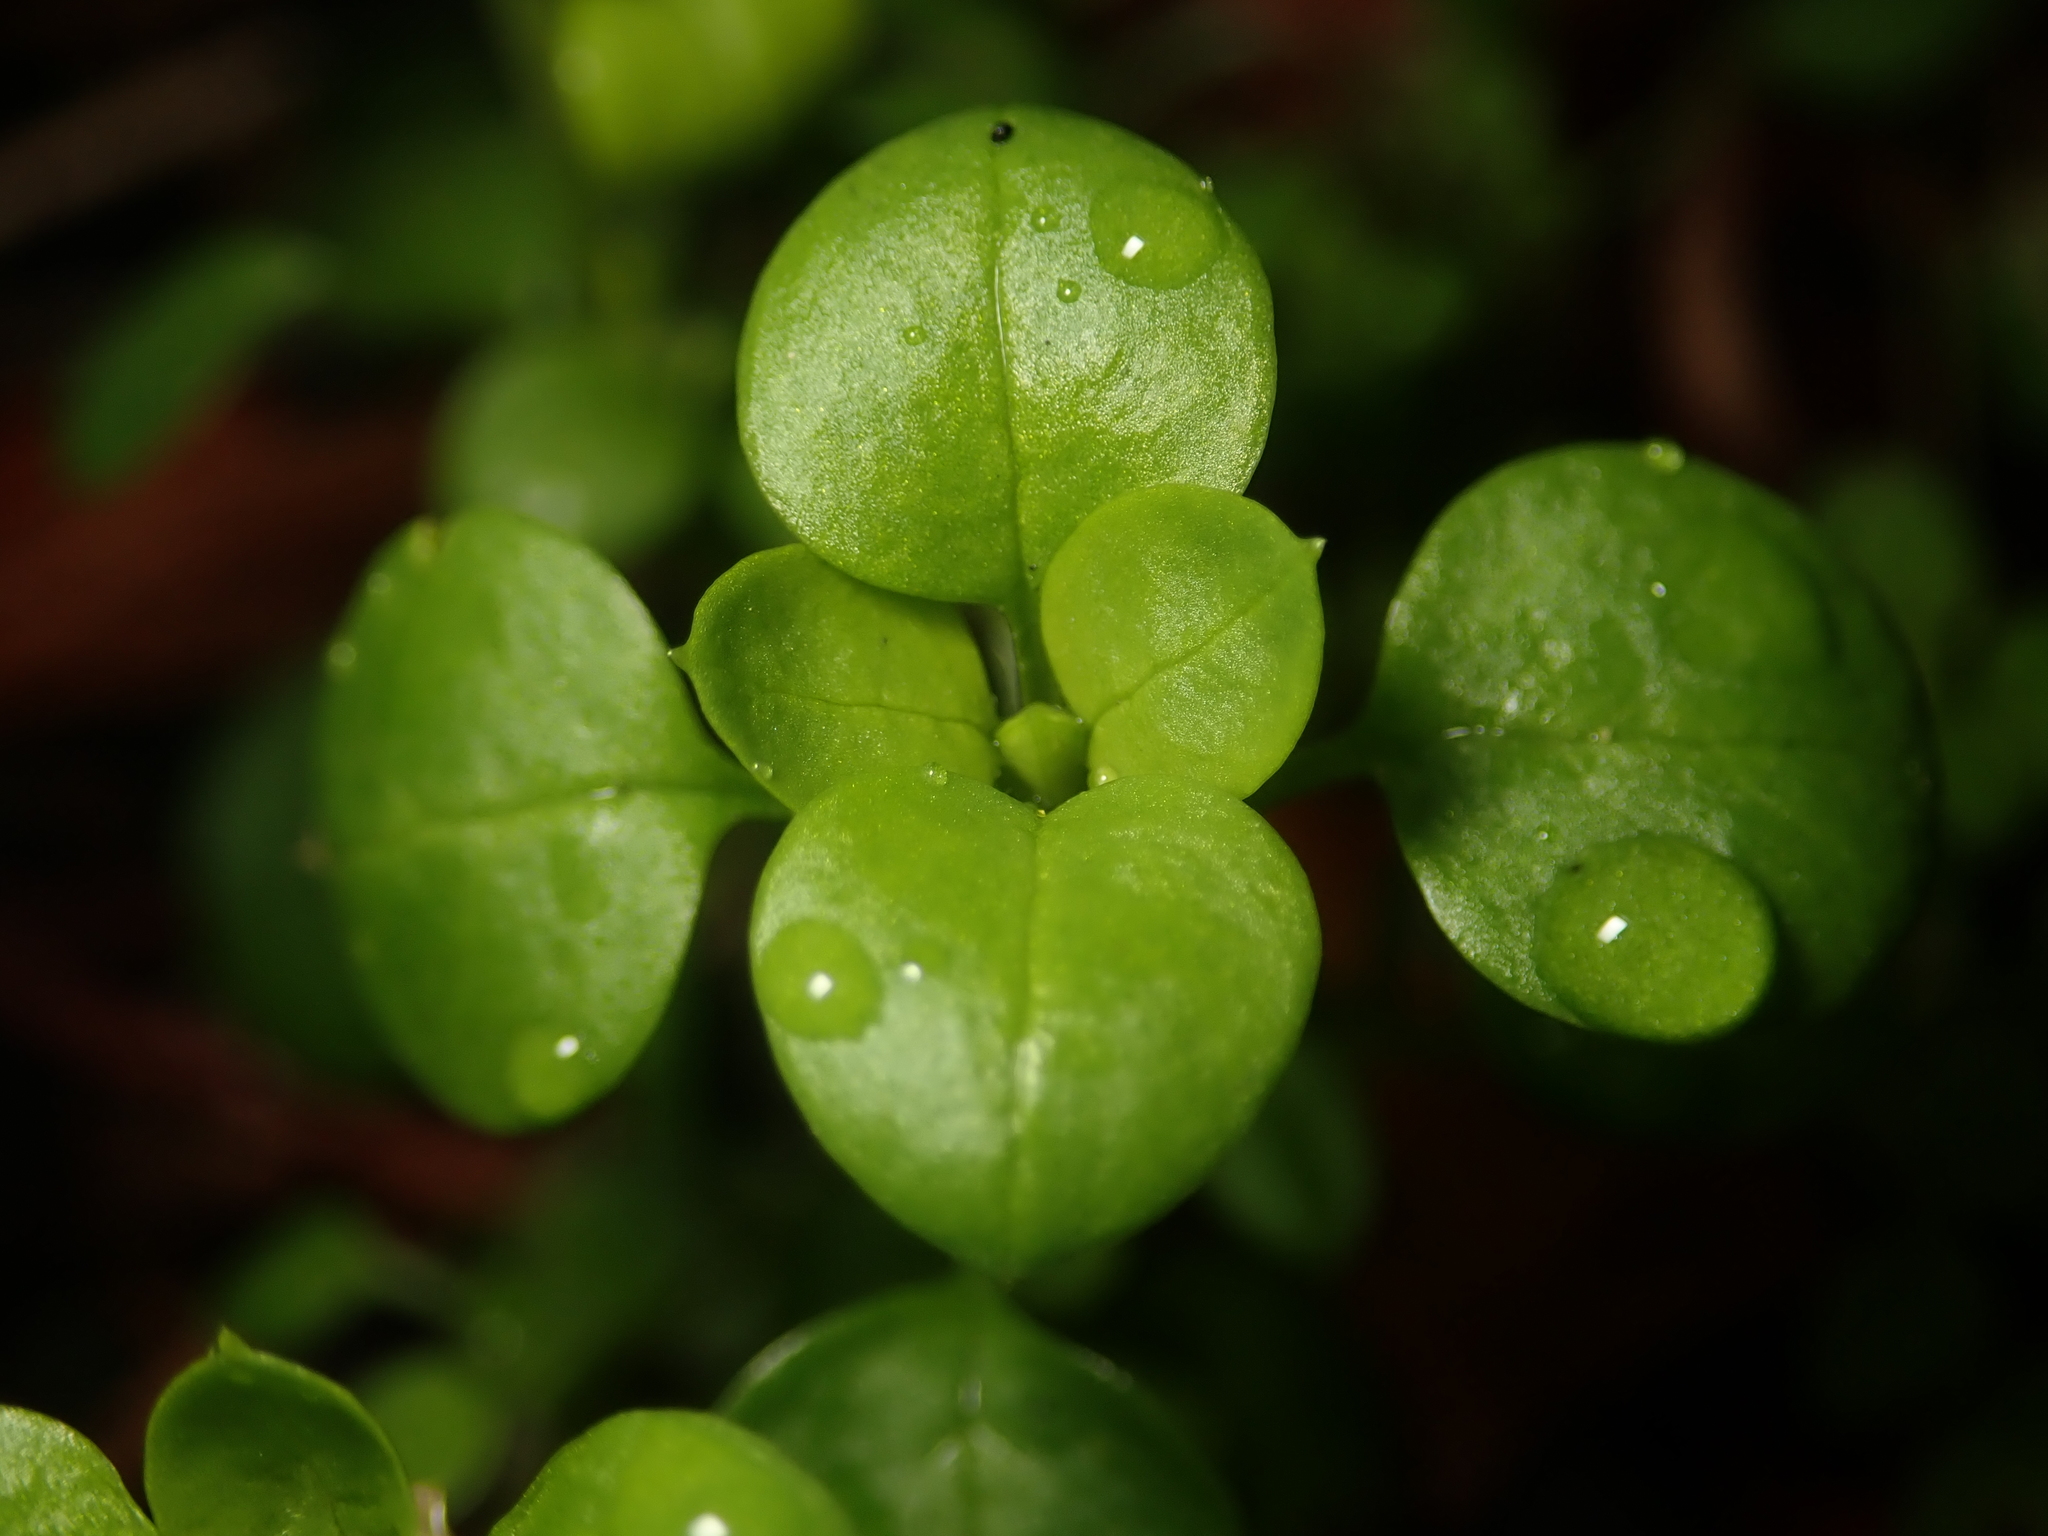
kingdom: Plantae
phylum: Tracheophyta
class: Magnoliopsida
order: Caryophyllales
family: Caryophyllaceae
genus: Stellaria
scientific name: Stellaria media
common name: Common chickweed
